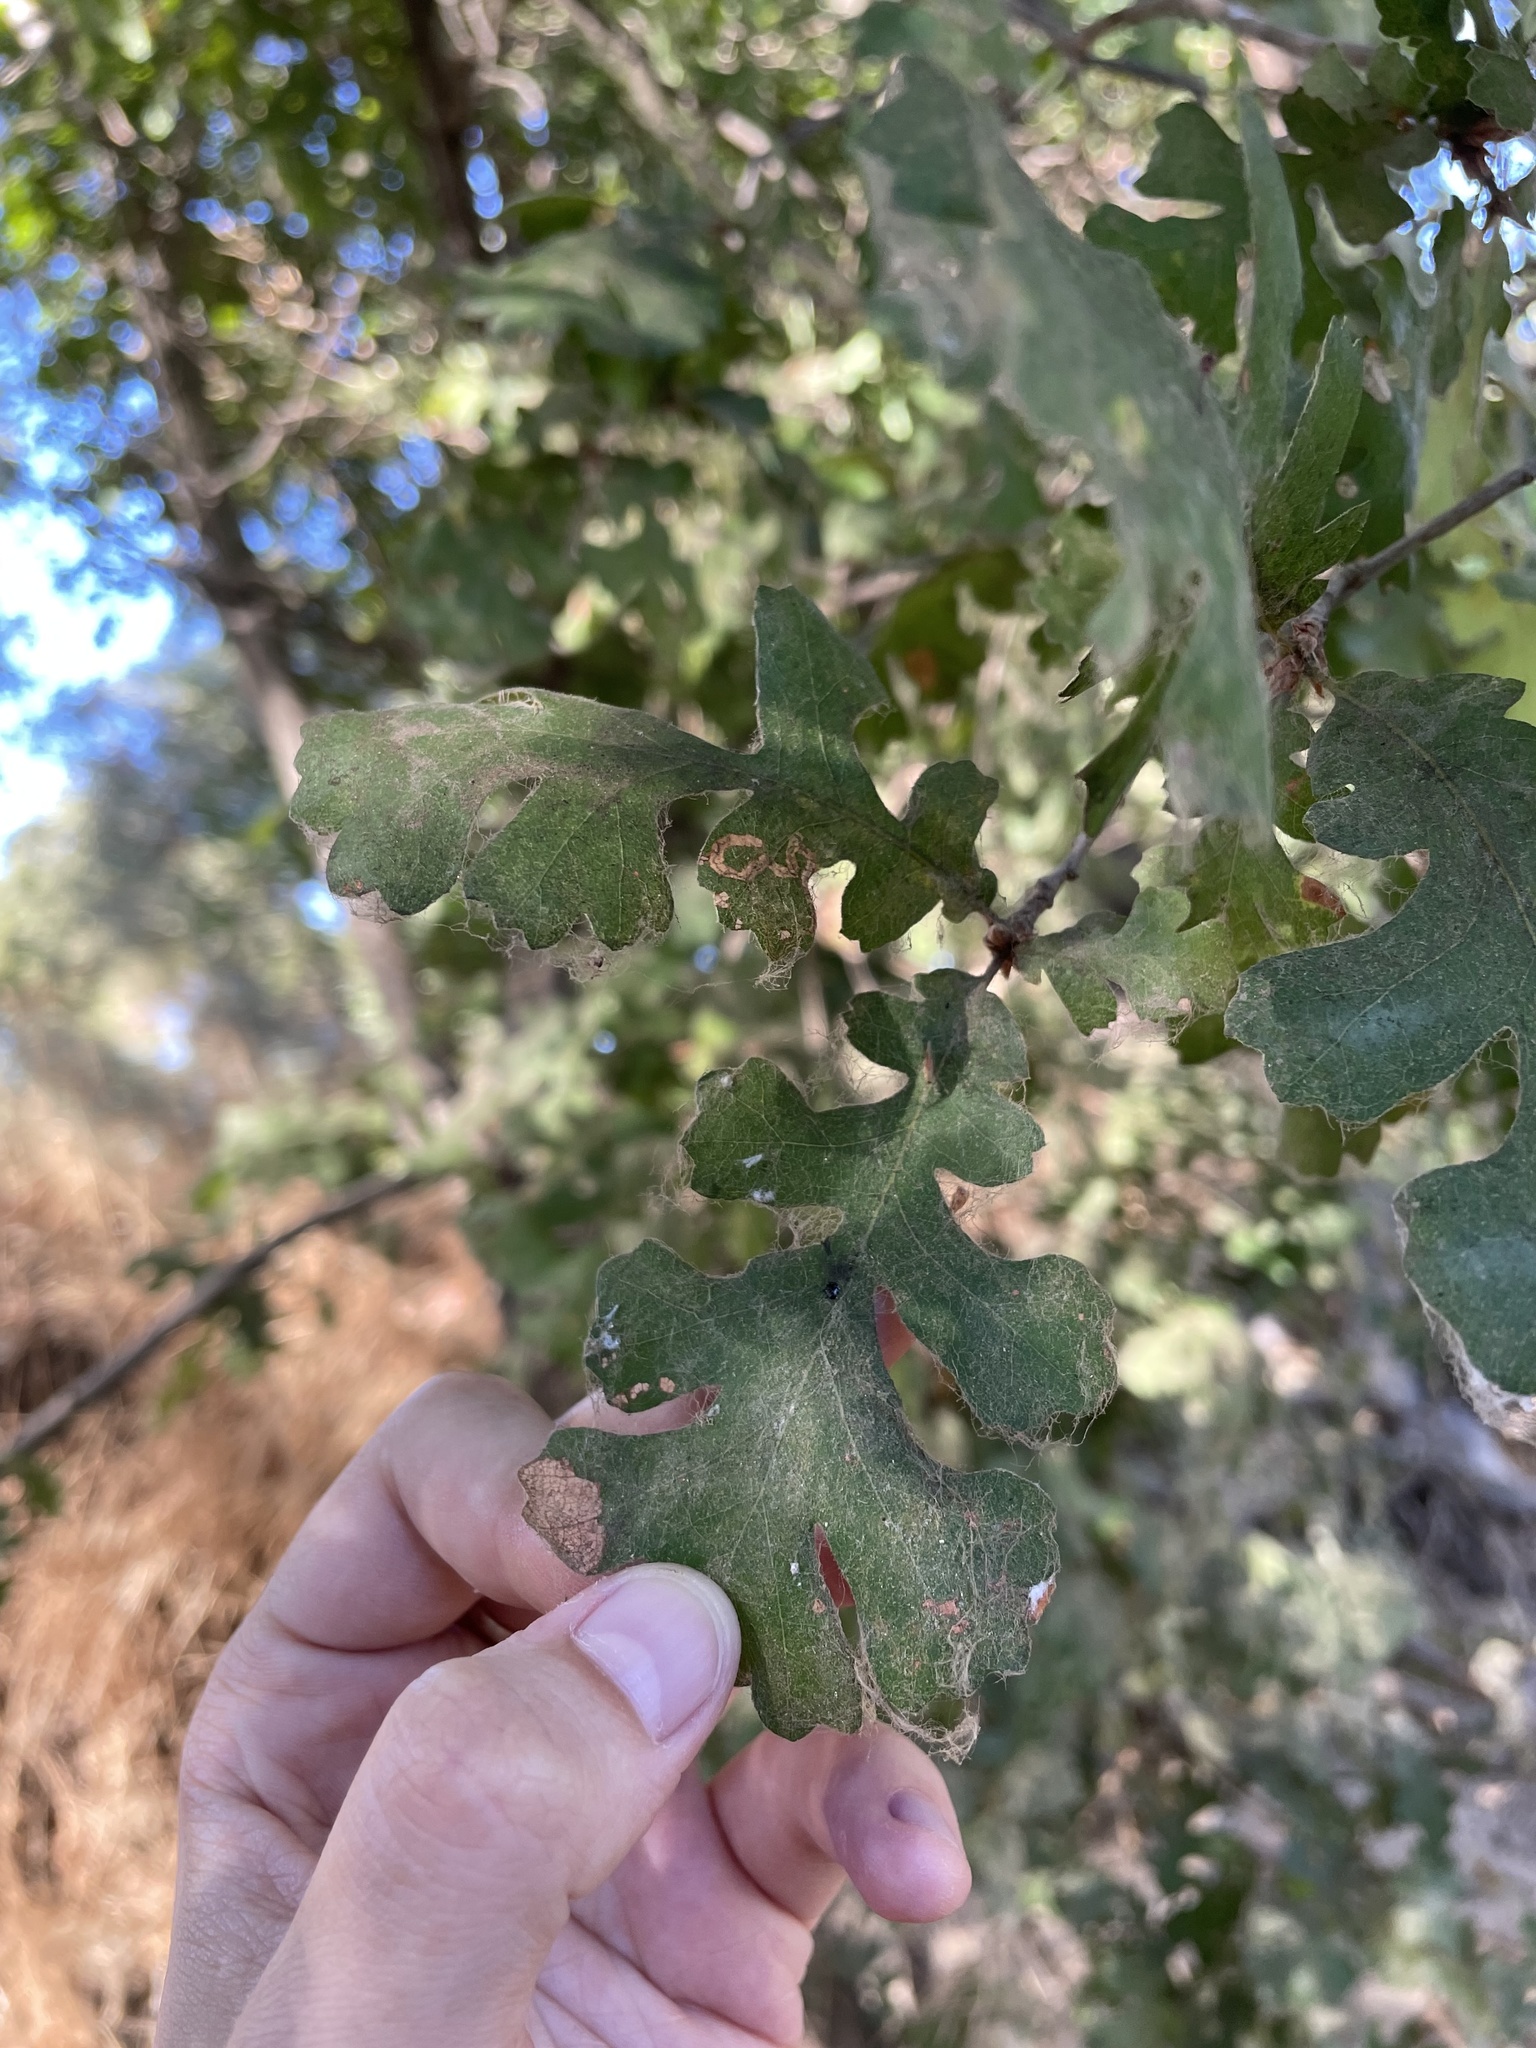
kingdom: Plantae
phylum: Tracheophyta
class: Magnoliopsida
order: Fagales
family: Fagaceae
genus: Quercus
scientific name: Quercus lobata
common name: Valley oak
